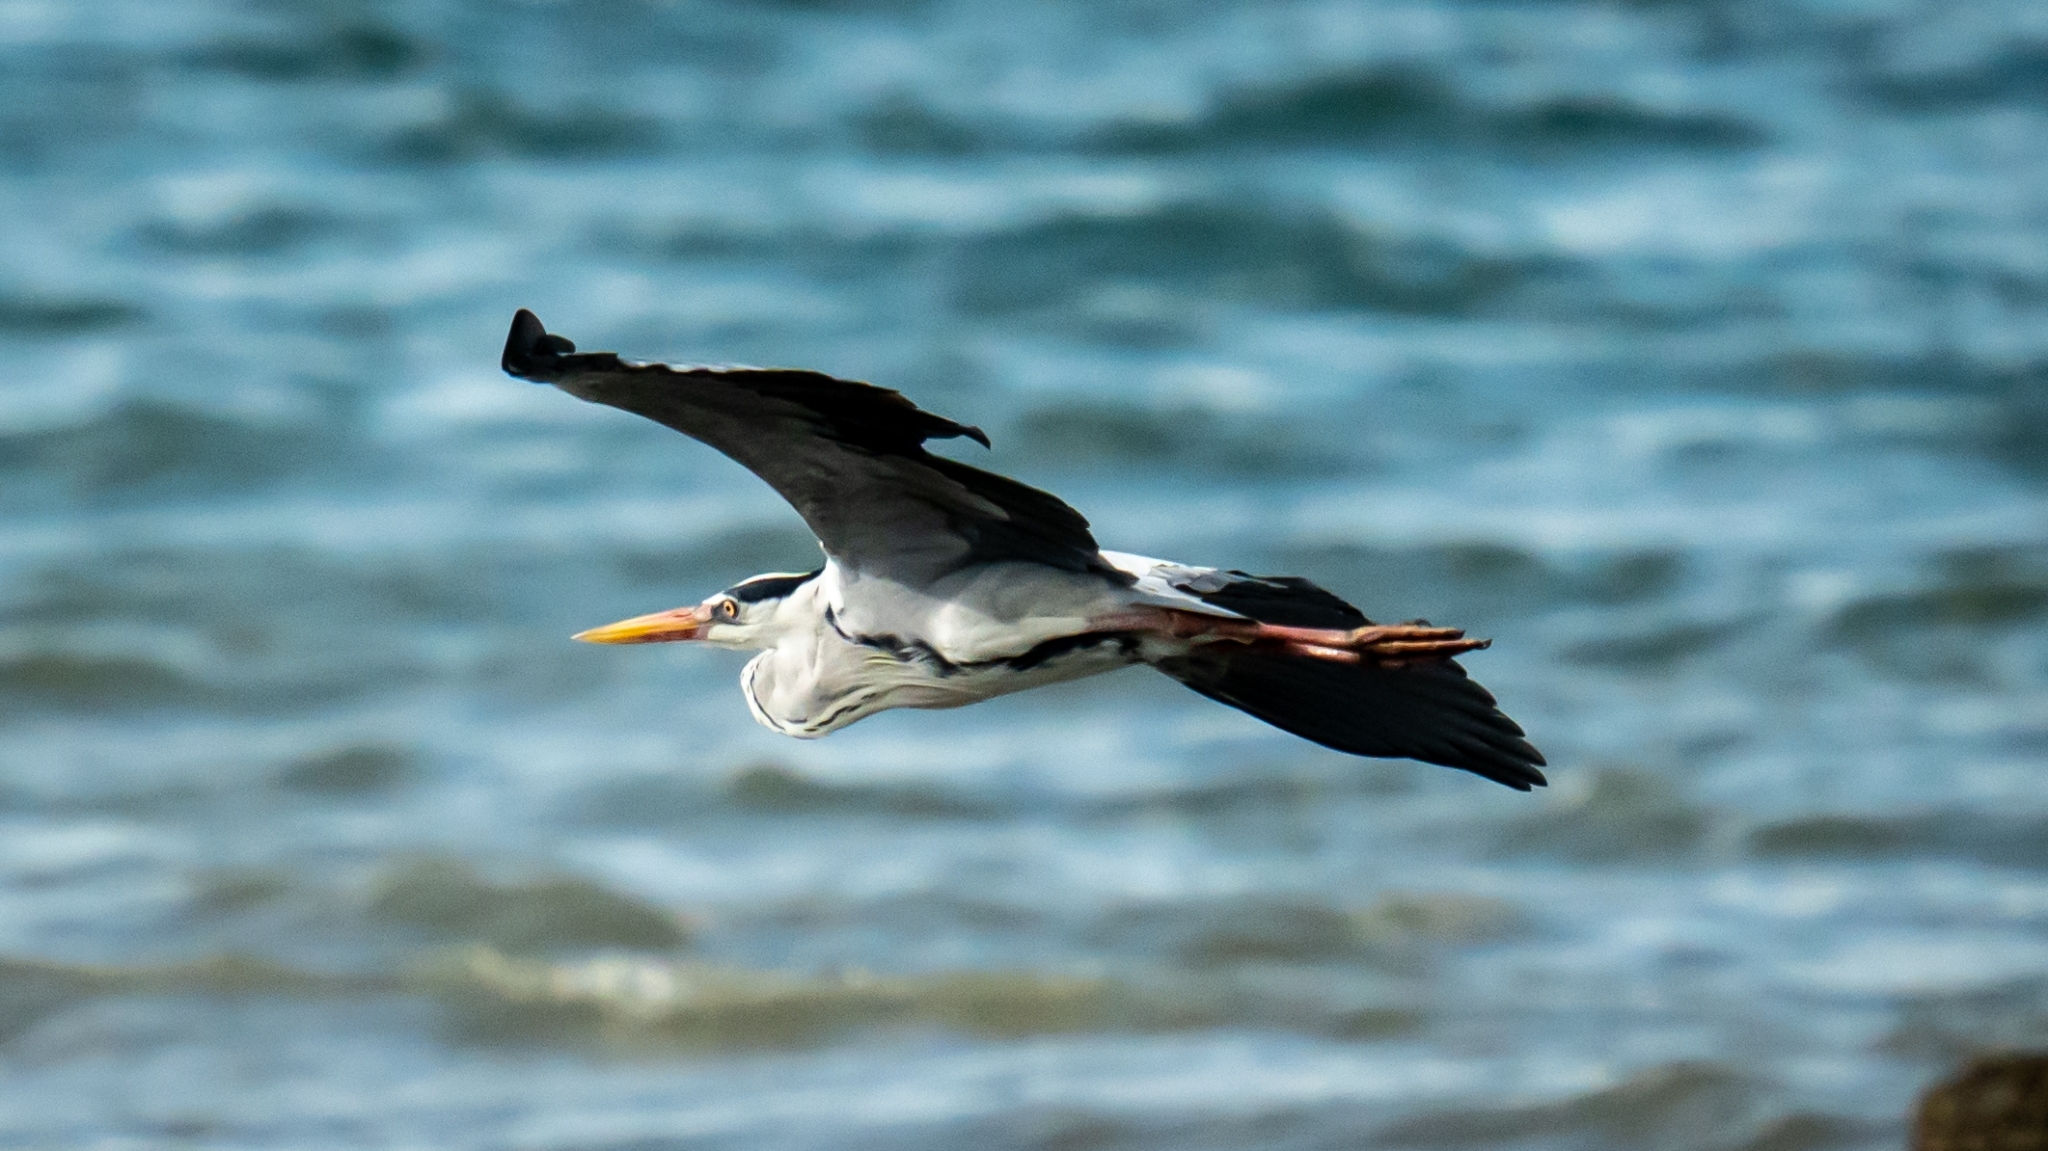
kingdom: Animalia
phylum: Chordata
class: Aves
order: Pelecaniformes
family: Ardeidae
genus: Ardea
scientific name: Ardea cinerea
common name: Grey heron
